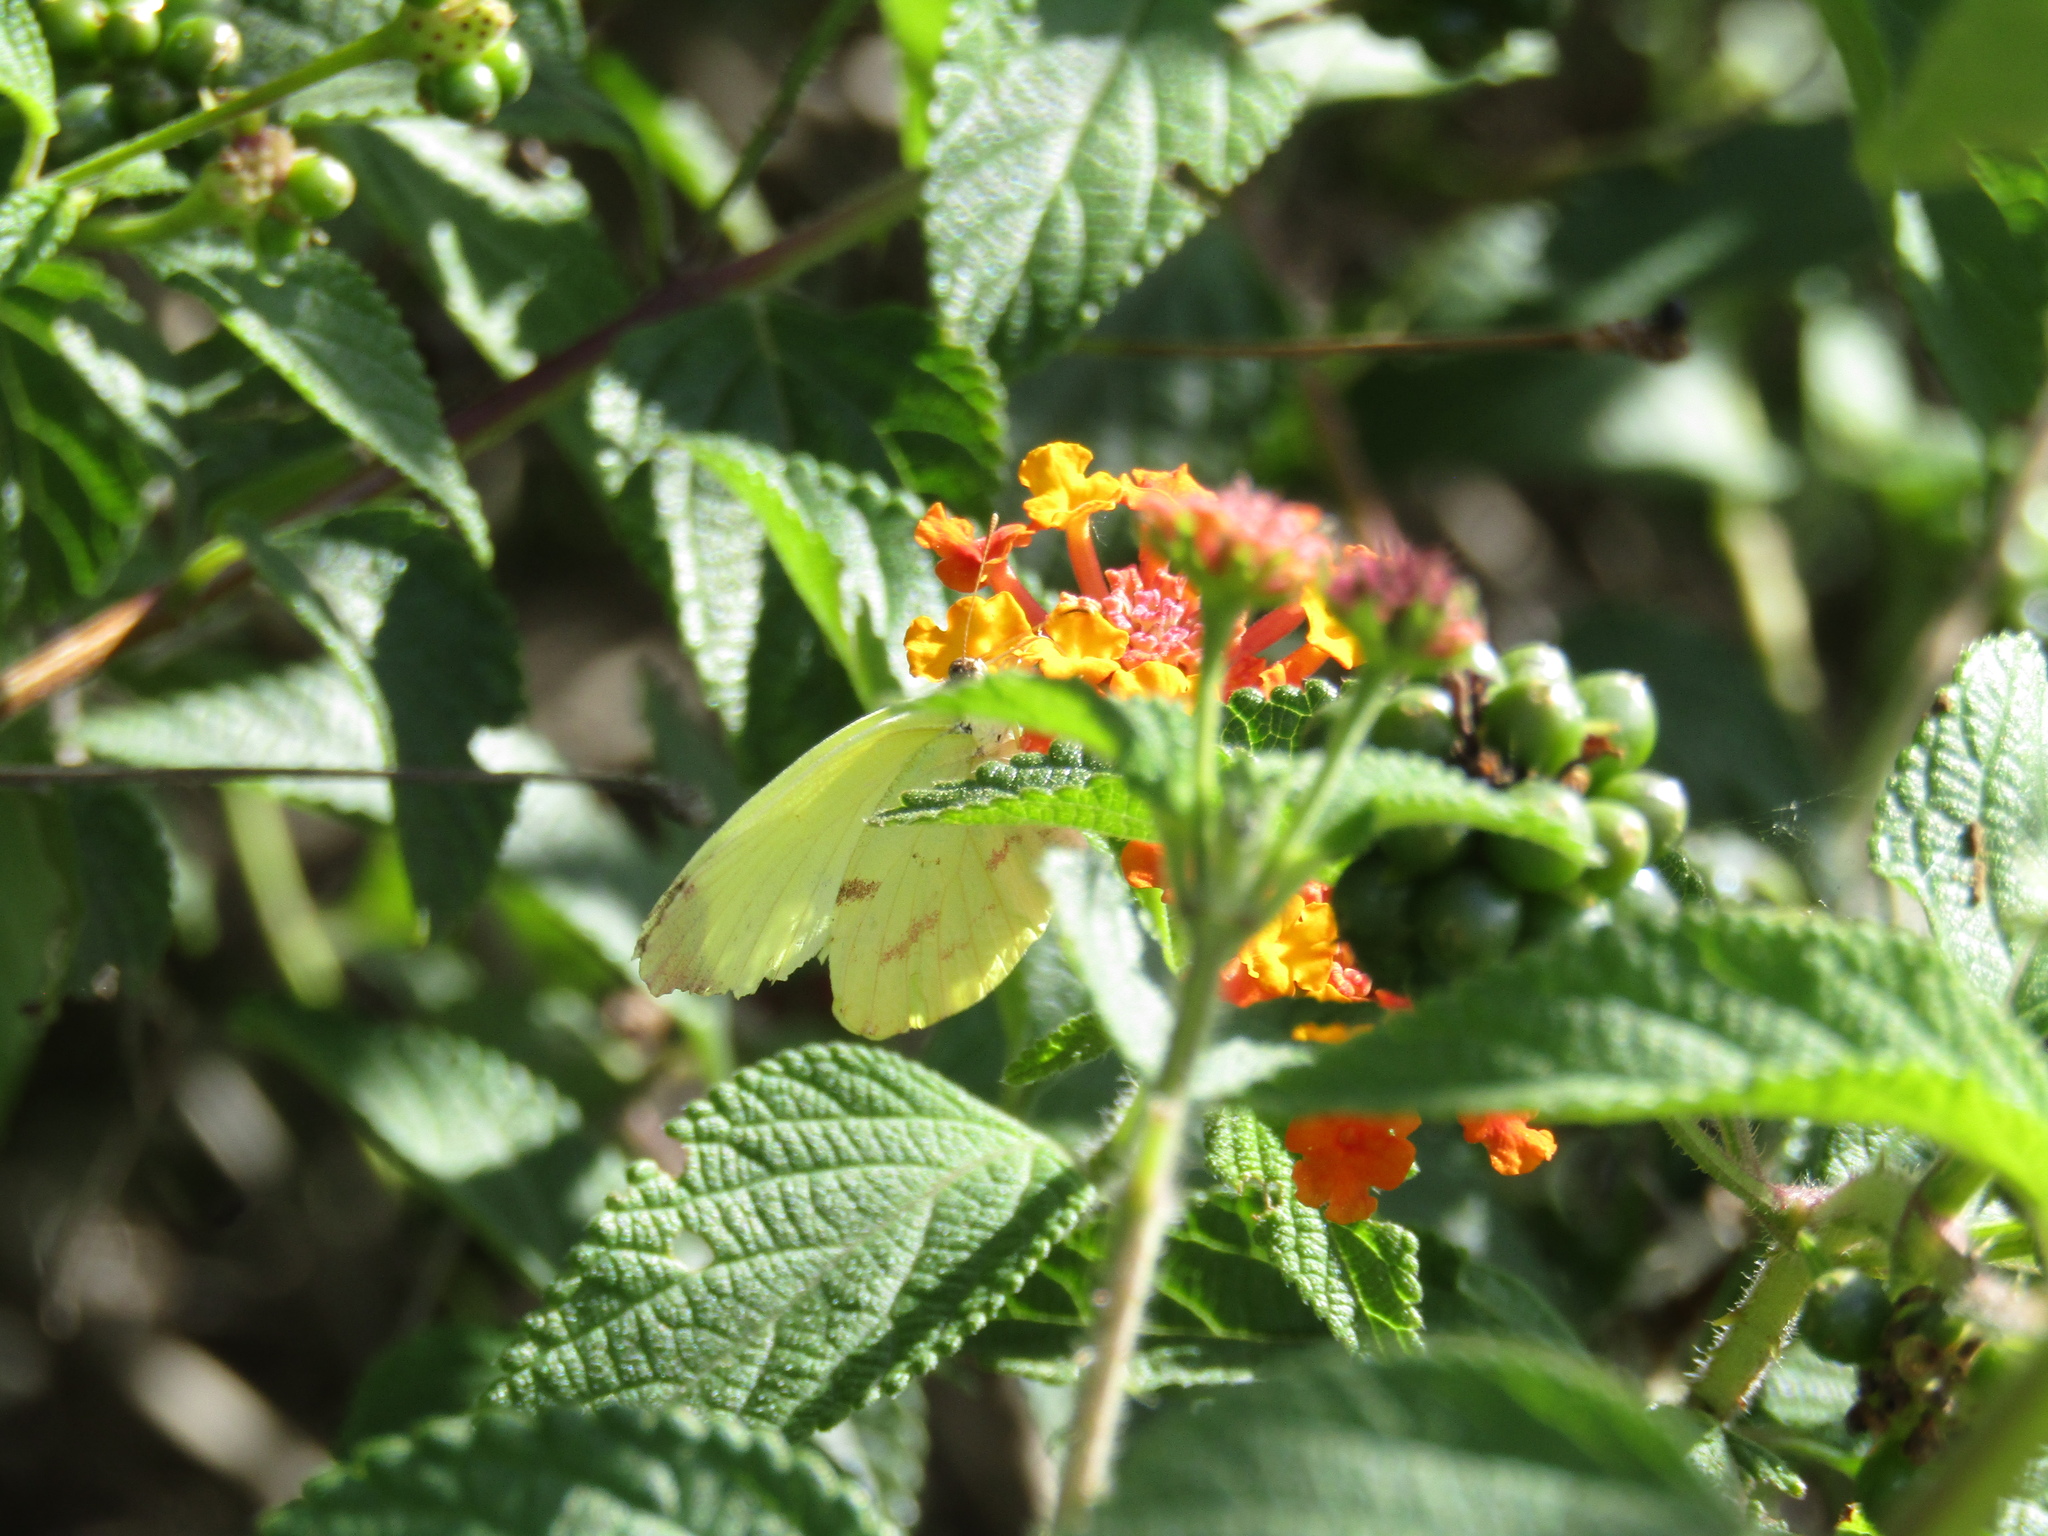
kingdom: Animalia
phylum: Arthropoda
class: Insecta
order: Lepidoptera
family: Pieridae
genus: Teriocolias
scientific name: Teriocolias
